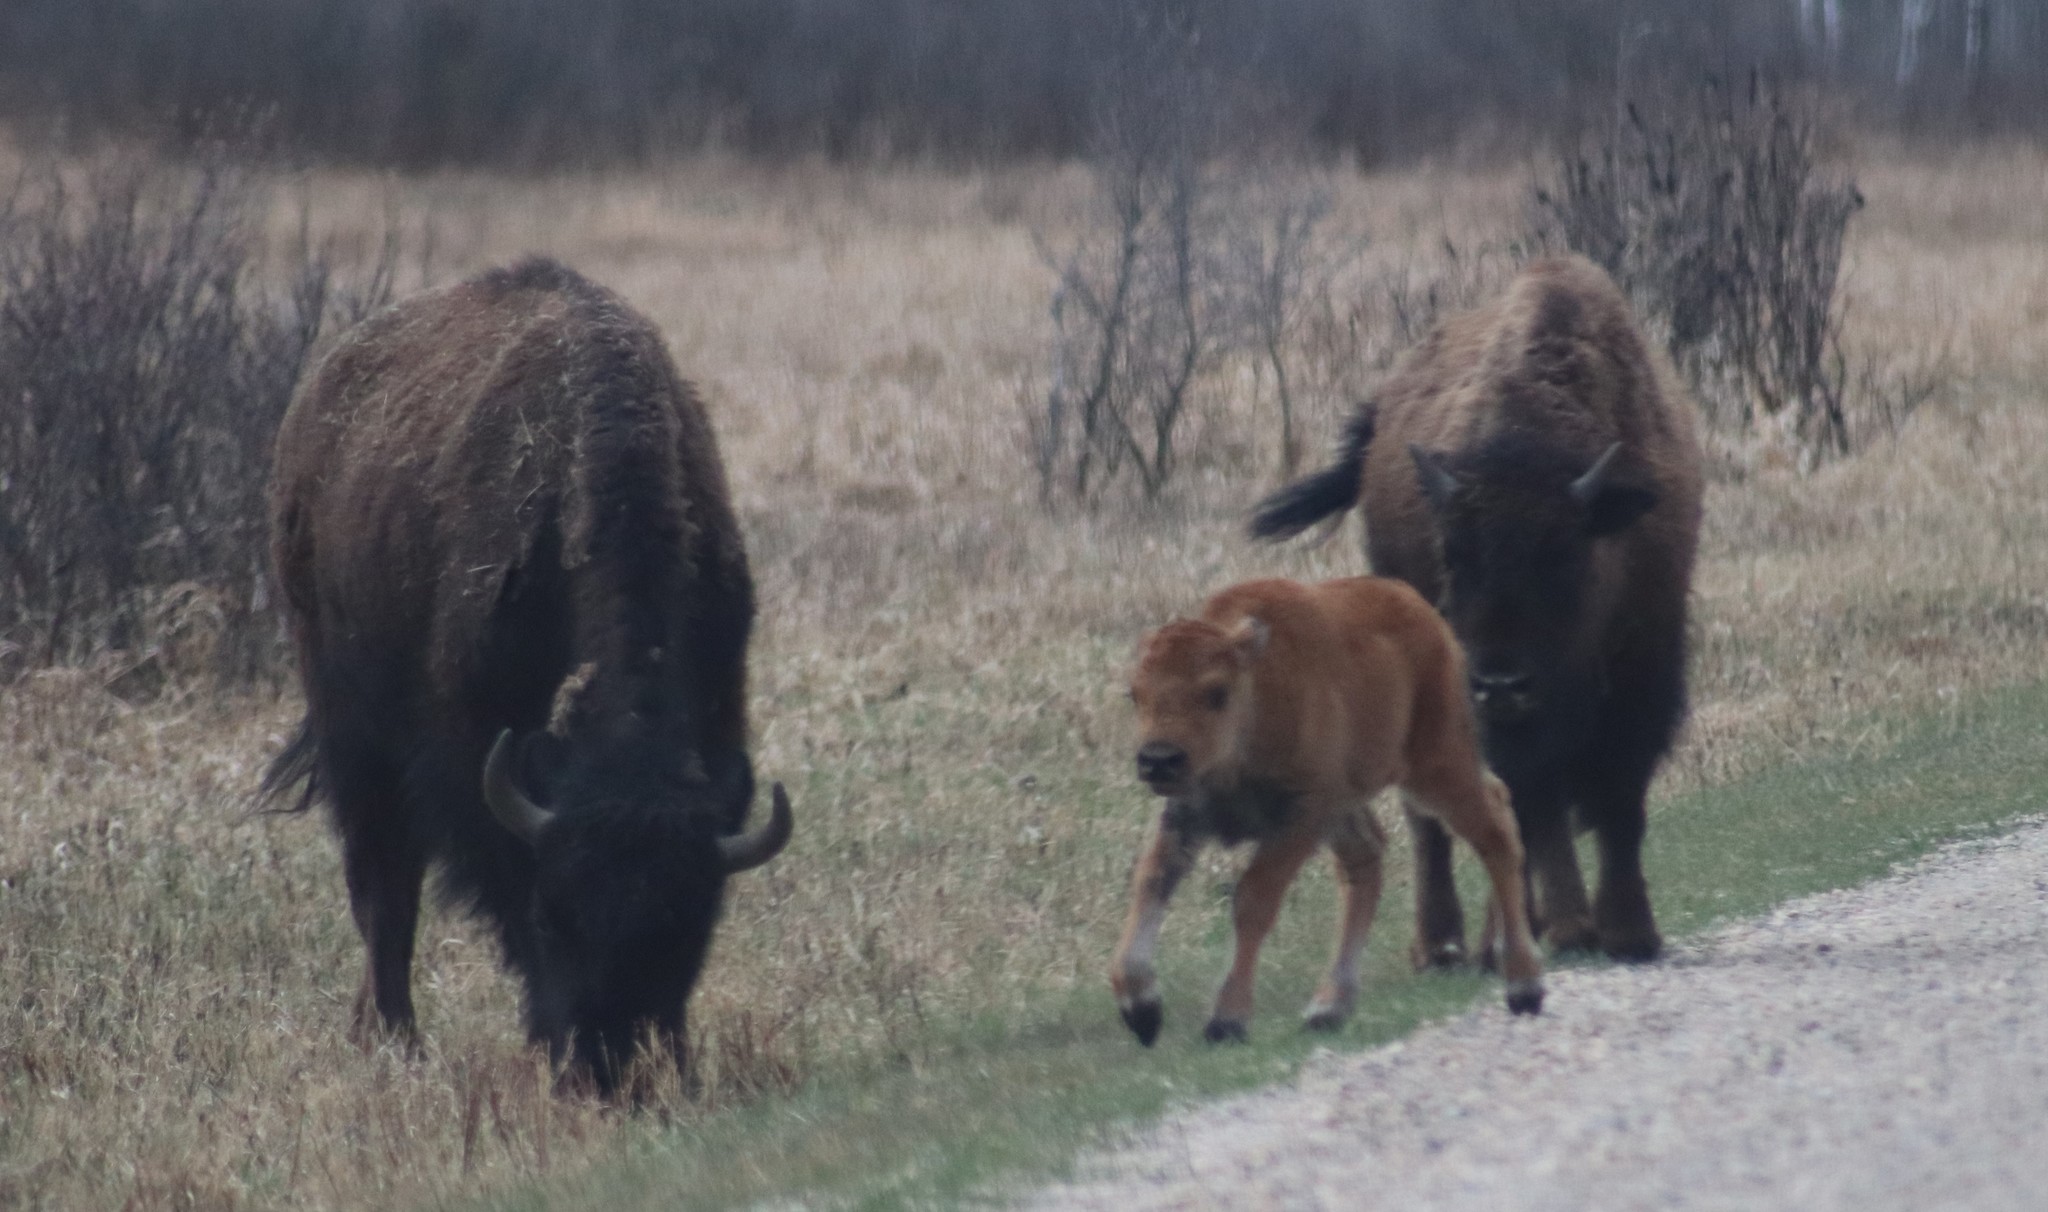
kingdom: Animalia
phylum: Chordata
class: Mammalia
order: Artiodactyla
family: Bovidae
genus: Bison
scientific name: Bison bison
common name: American bison
